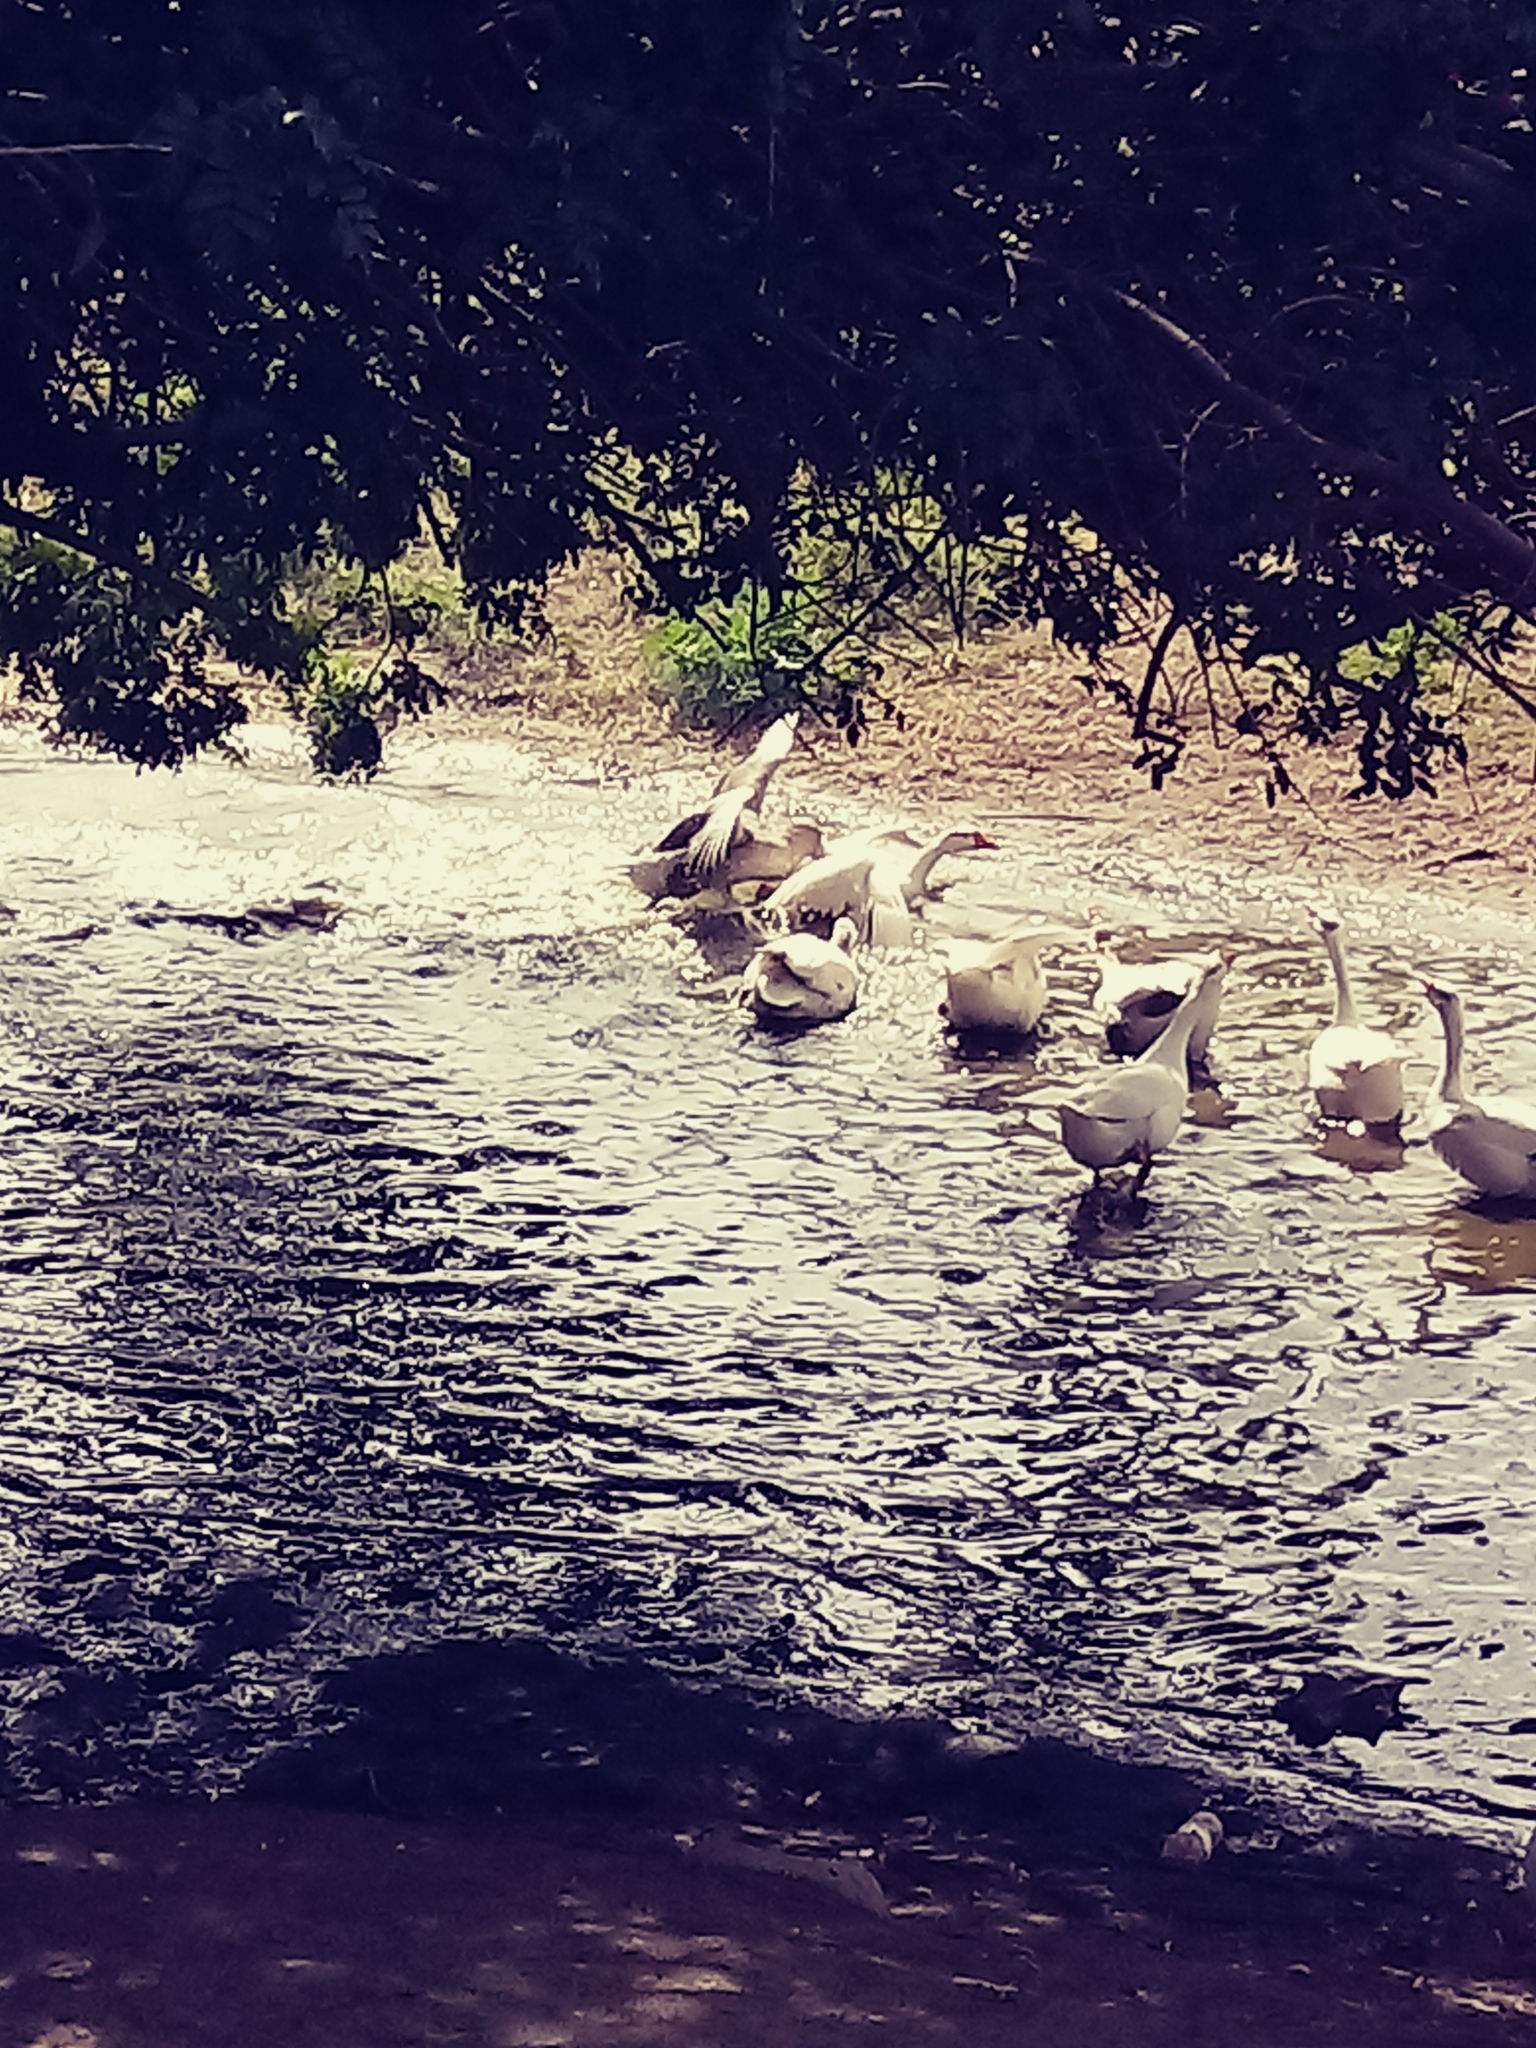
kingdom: Animalia
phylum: Chordata
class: Aves
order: Anseriformes
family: Anatidae
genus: Anas
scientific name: Anas platyrhynchos
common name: Mallard
